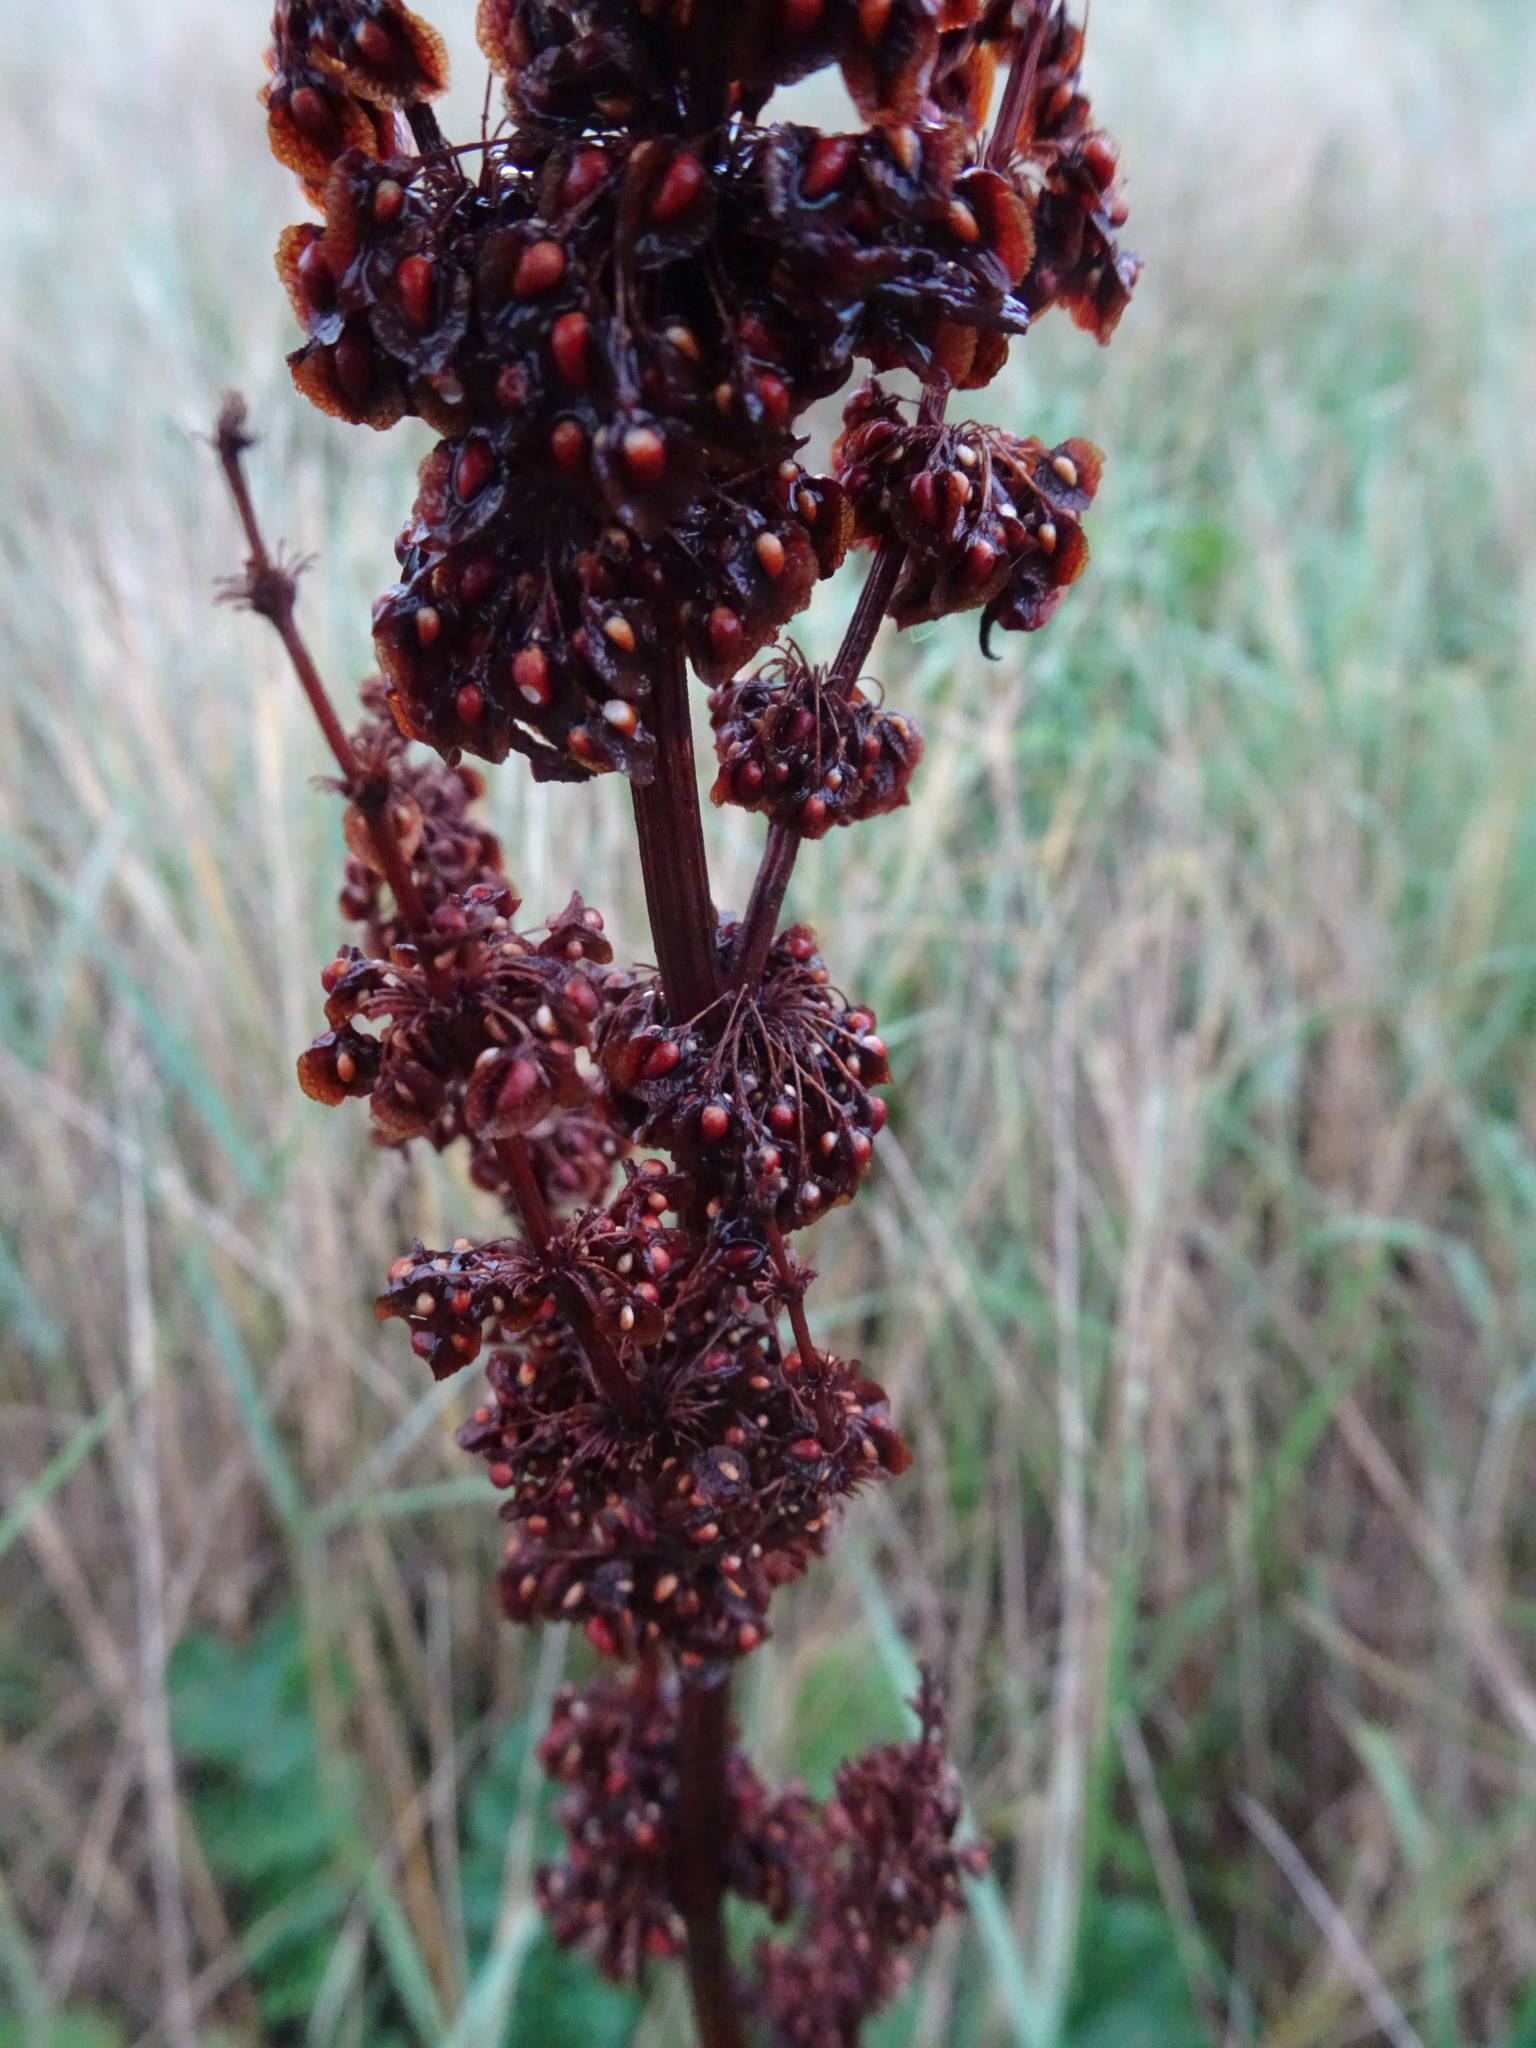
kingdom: Plantae
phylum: Tracheophyta
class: Magnoliopsida
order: Caryophyllales
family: Polygonaceae
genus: Rumex
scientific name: Rumex crispus
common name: Curled dock
